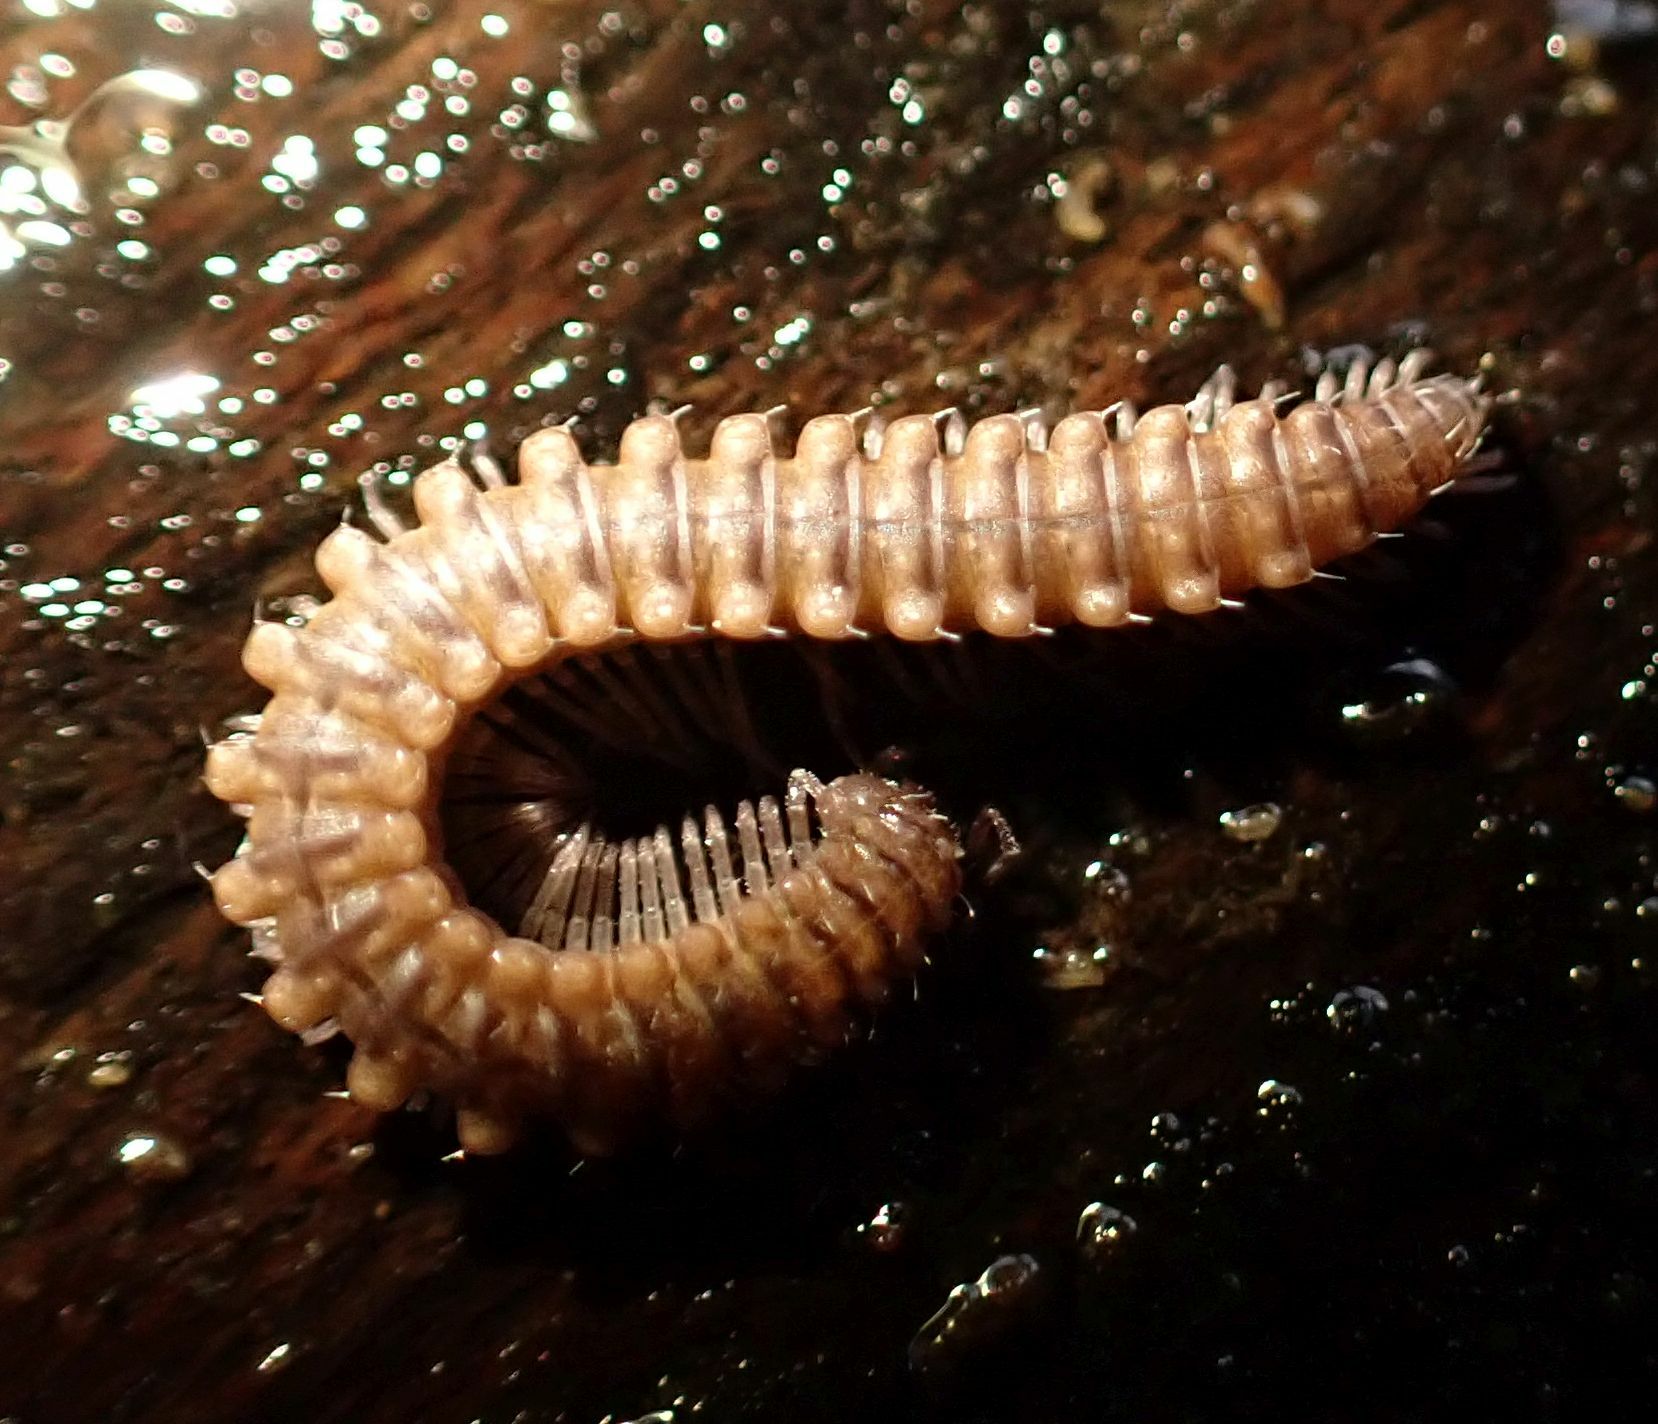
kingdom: Animalia
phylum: Arthropoda
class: Diplopoda
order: Chordeumatida
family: Craspedosomatidae
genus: Nanogona
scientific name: Nanogona polydesmoides
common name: Eyed flat-backed millipede
